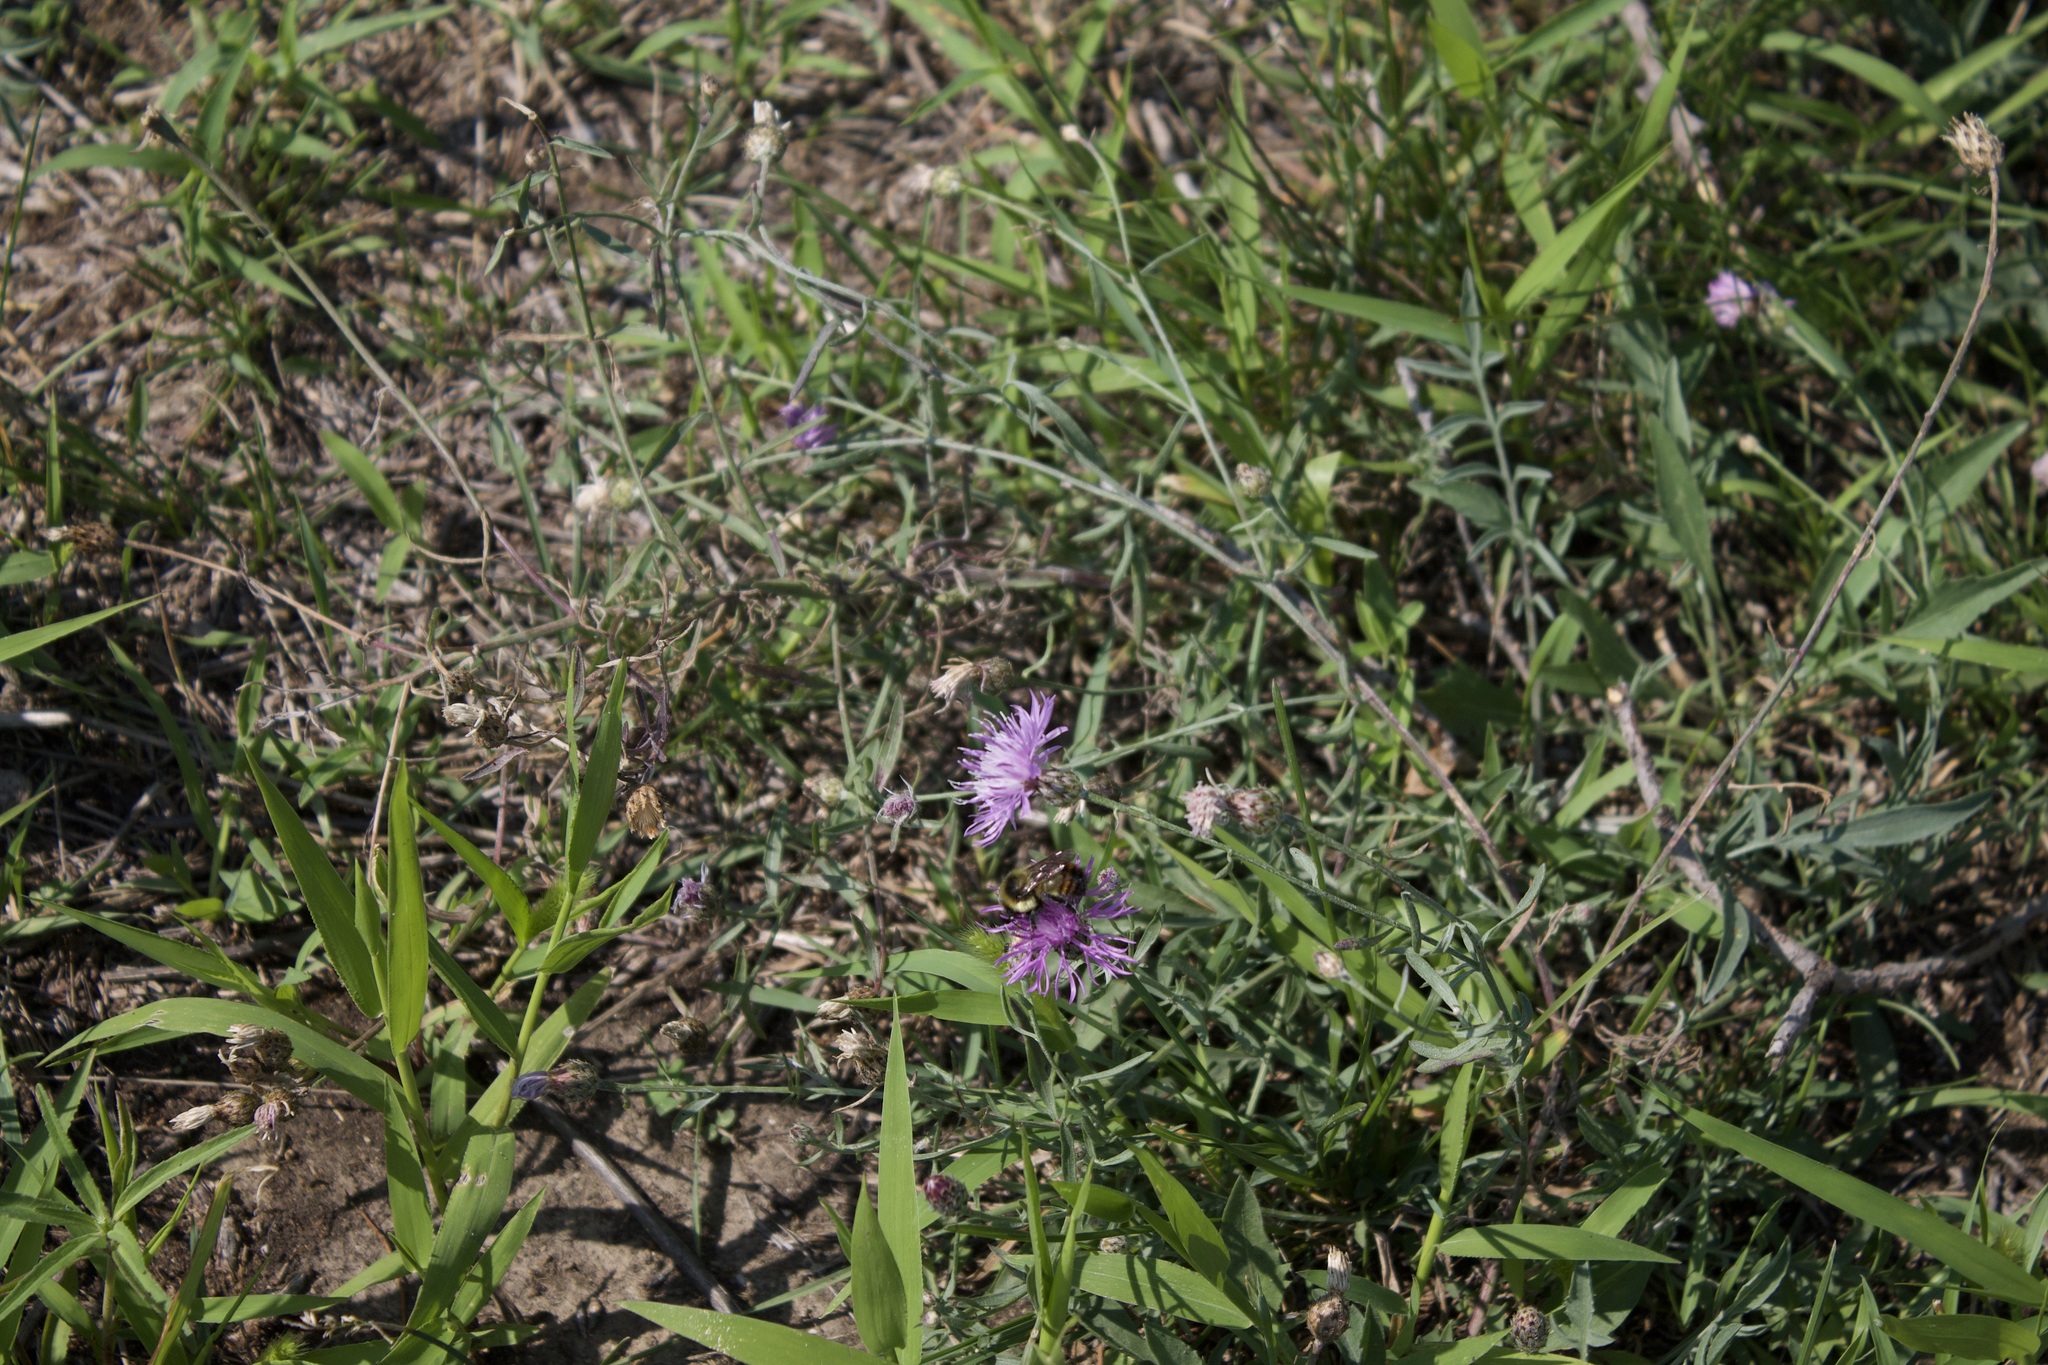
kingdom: Animalia
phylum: Arthropoda
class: Insecta
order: Hymenoptera
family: Apidae
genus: Bombus
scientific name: Bombus rufocinctus
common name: Red-belted bumble bee
